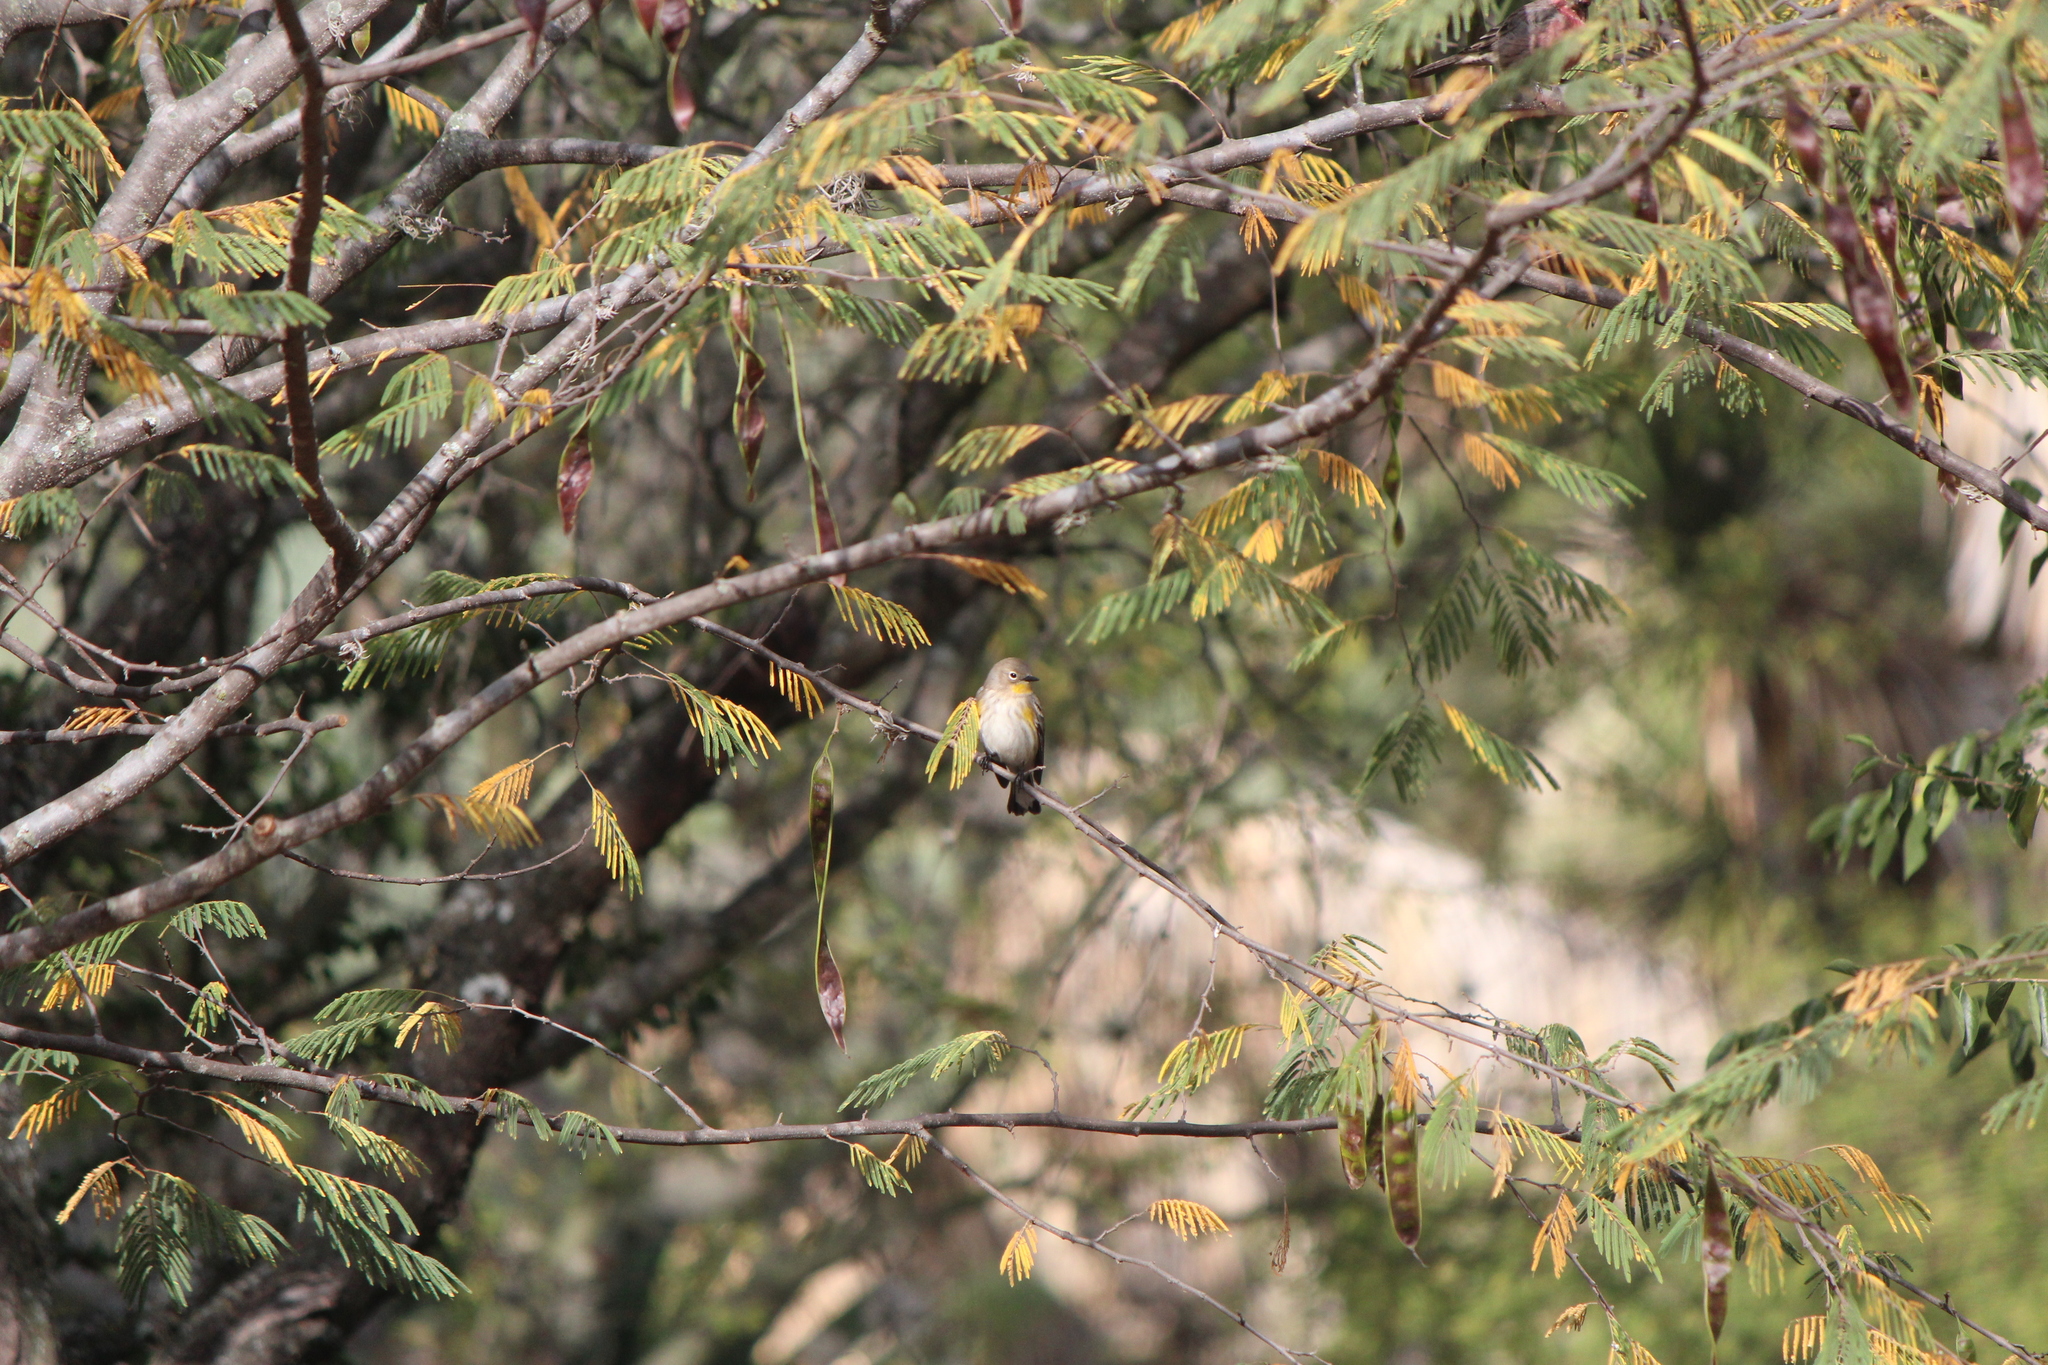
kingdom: Animalia
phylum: Chordata
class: Aves
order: Passeriformes
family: Parulidae
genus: Setophaga
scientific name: Setophaga auduboni
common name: Audubon's warbler
